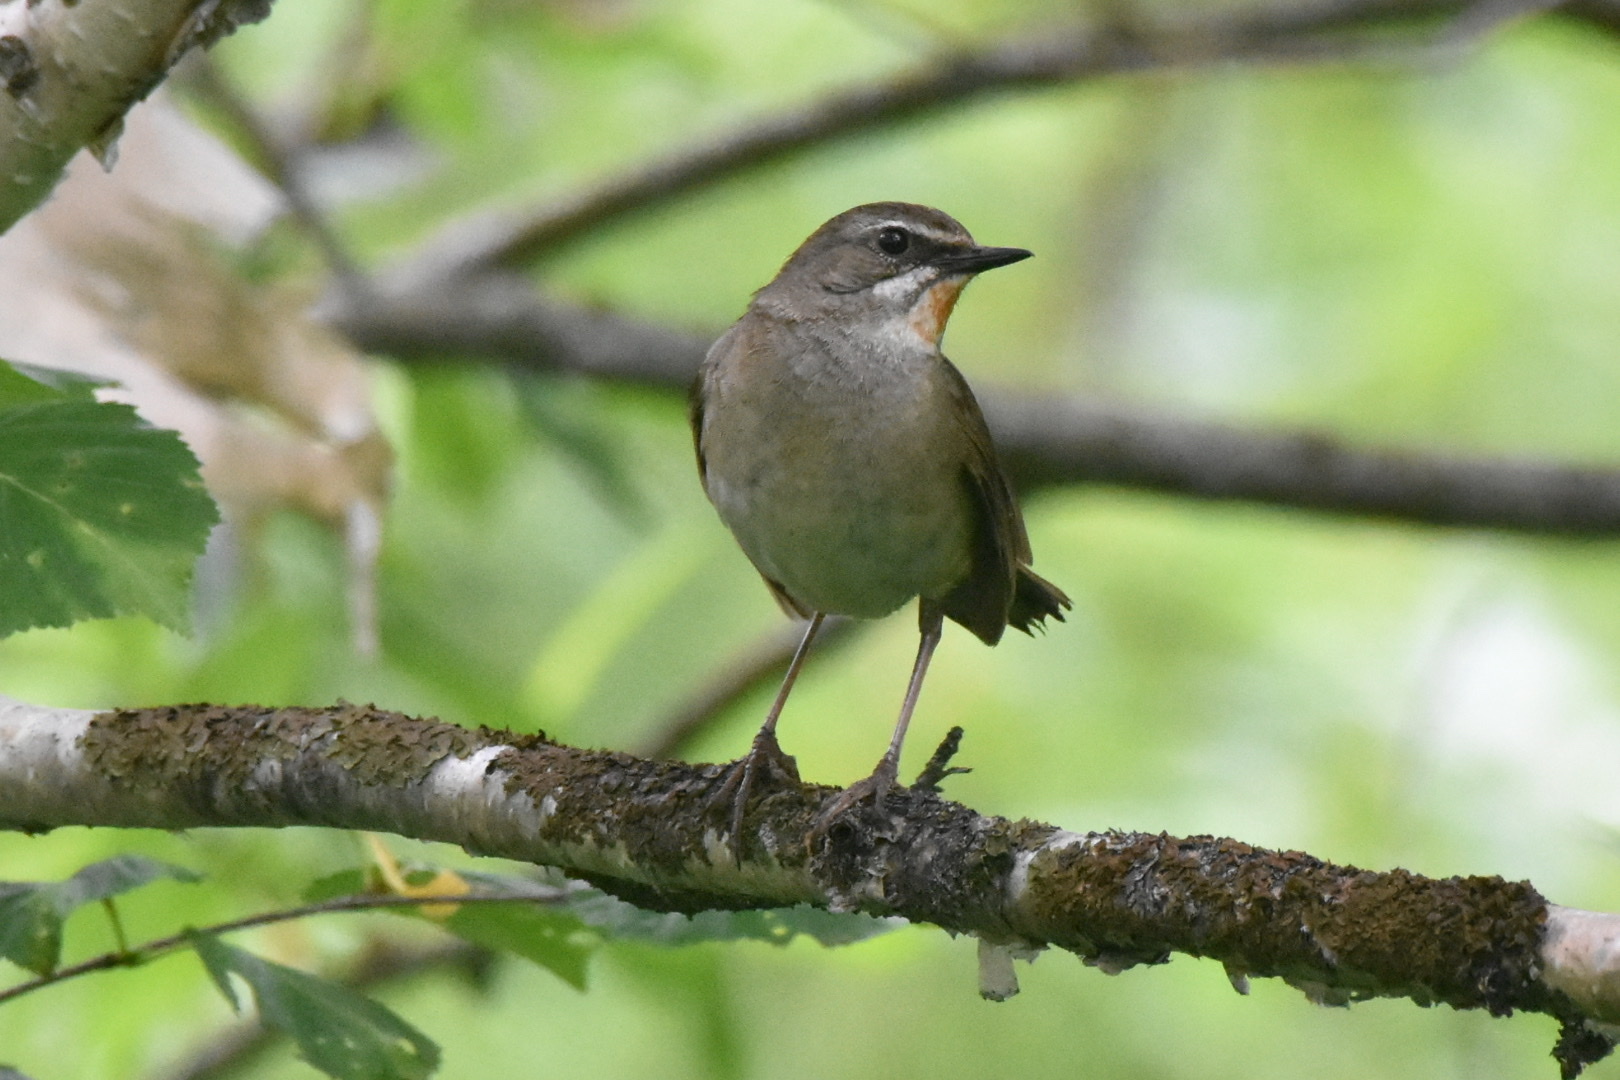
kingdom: Animalia
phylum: Chordata
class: Aves
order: Passeriformes
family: Muscicapidae
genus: Luscinia
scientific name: Luscinia calliope
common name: Siberian rubythroat
